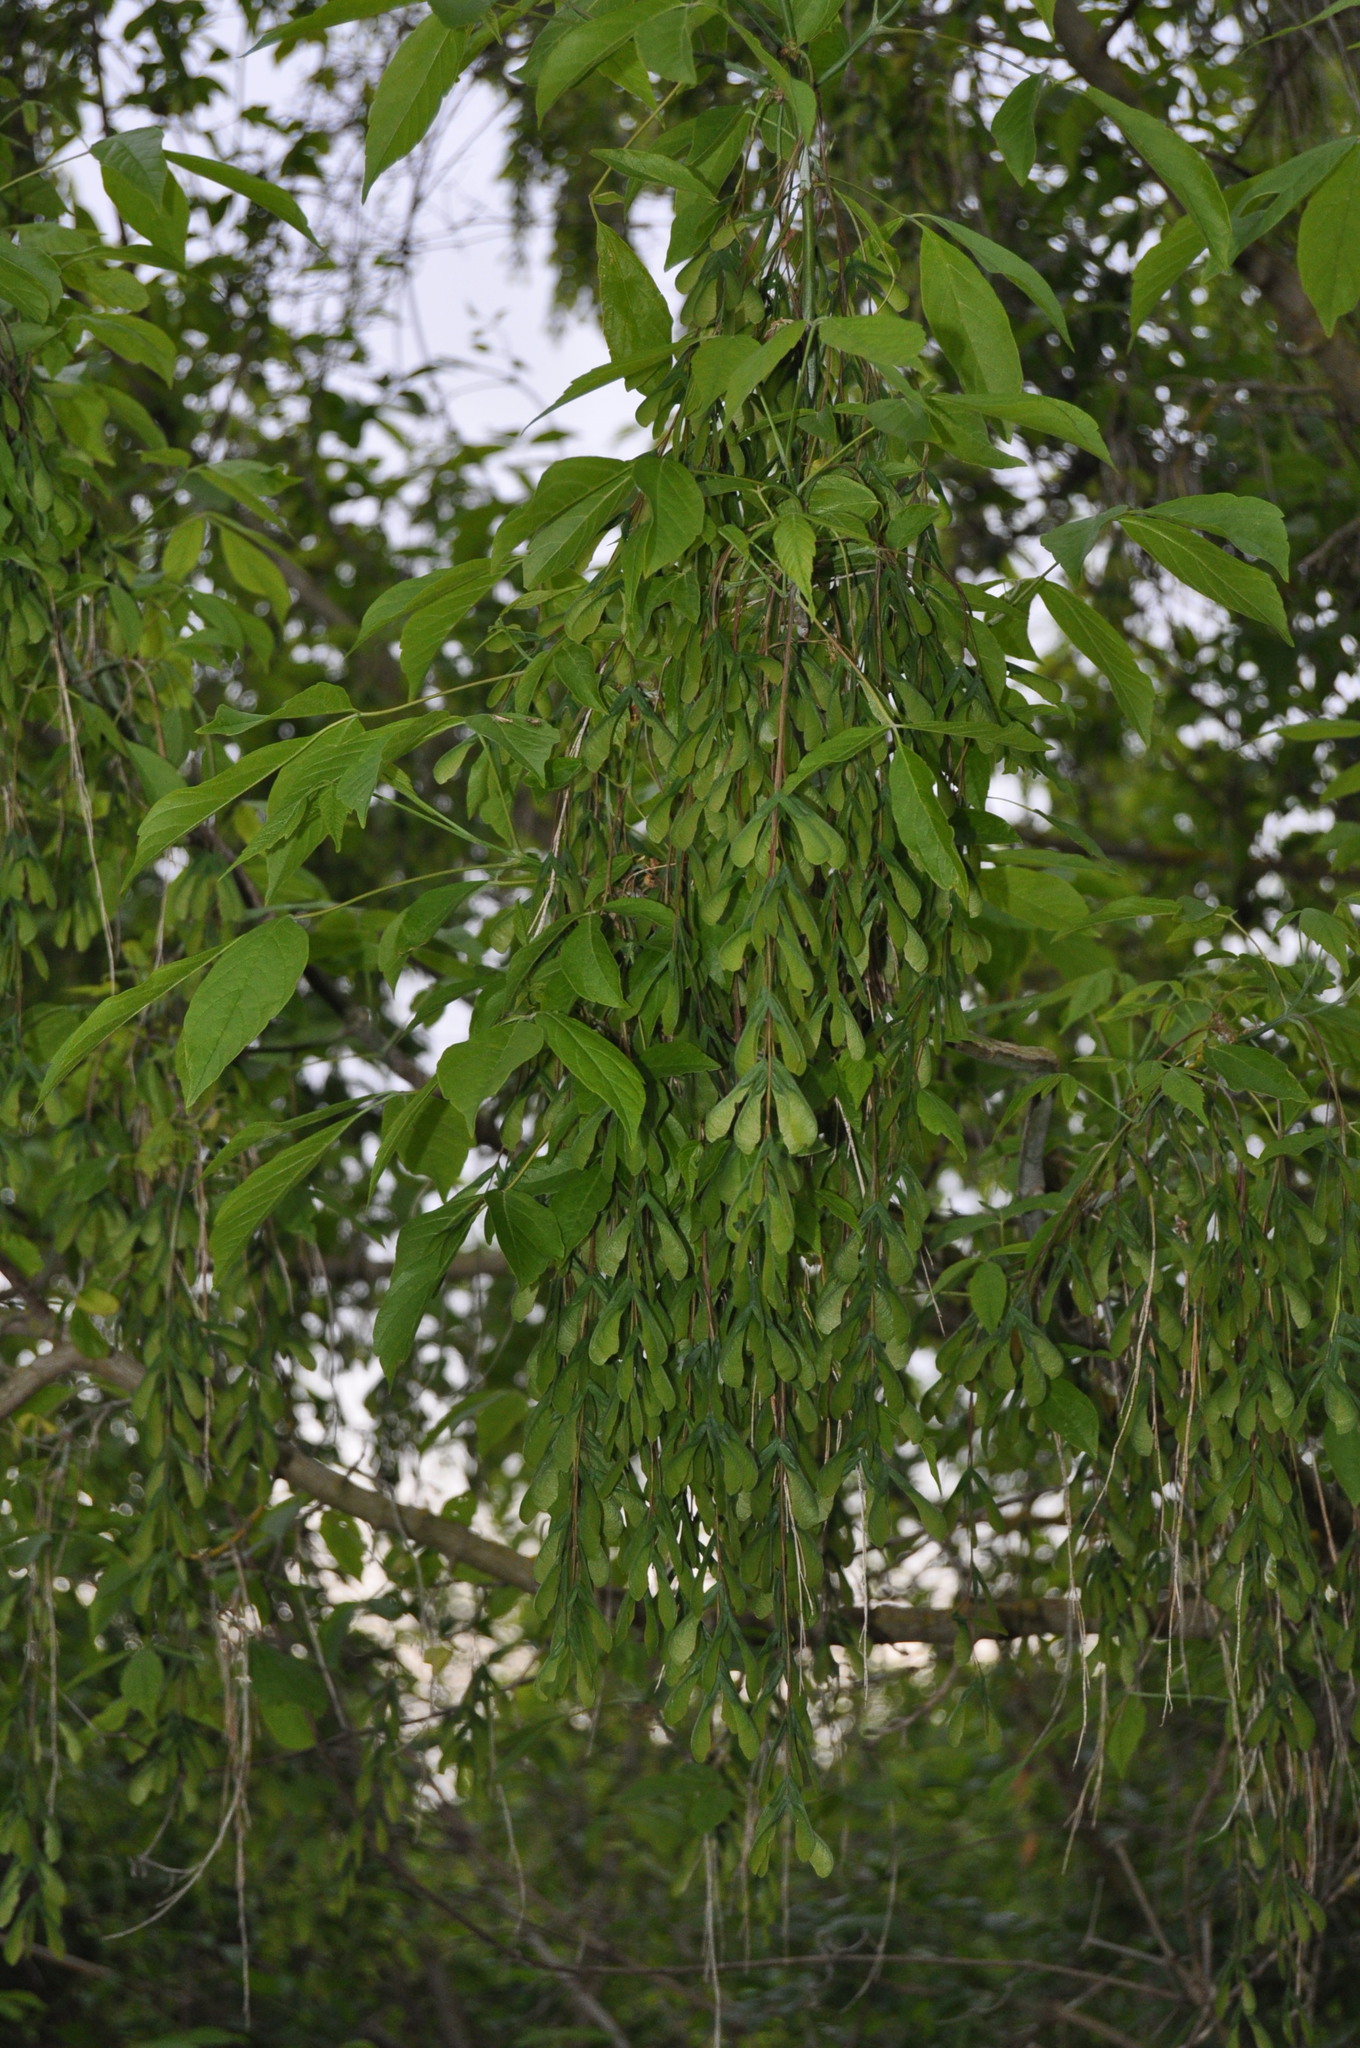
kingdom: Plantae
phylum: Tracheophyta
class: Magnoliopsida
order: Sapindales
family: Sapindaceae
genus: Acer
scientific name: Acer negundo
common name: Ashleaf maple
